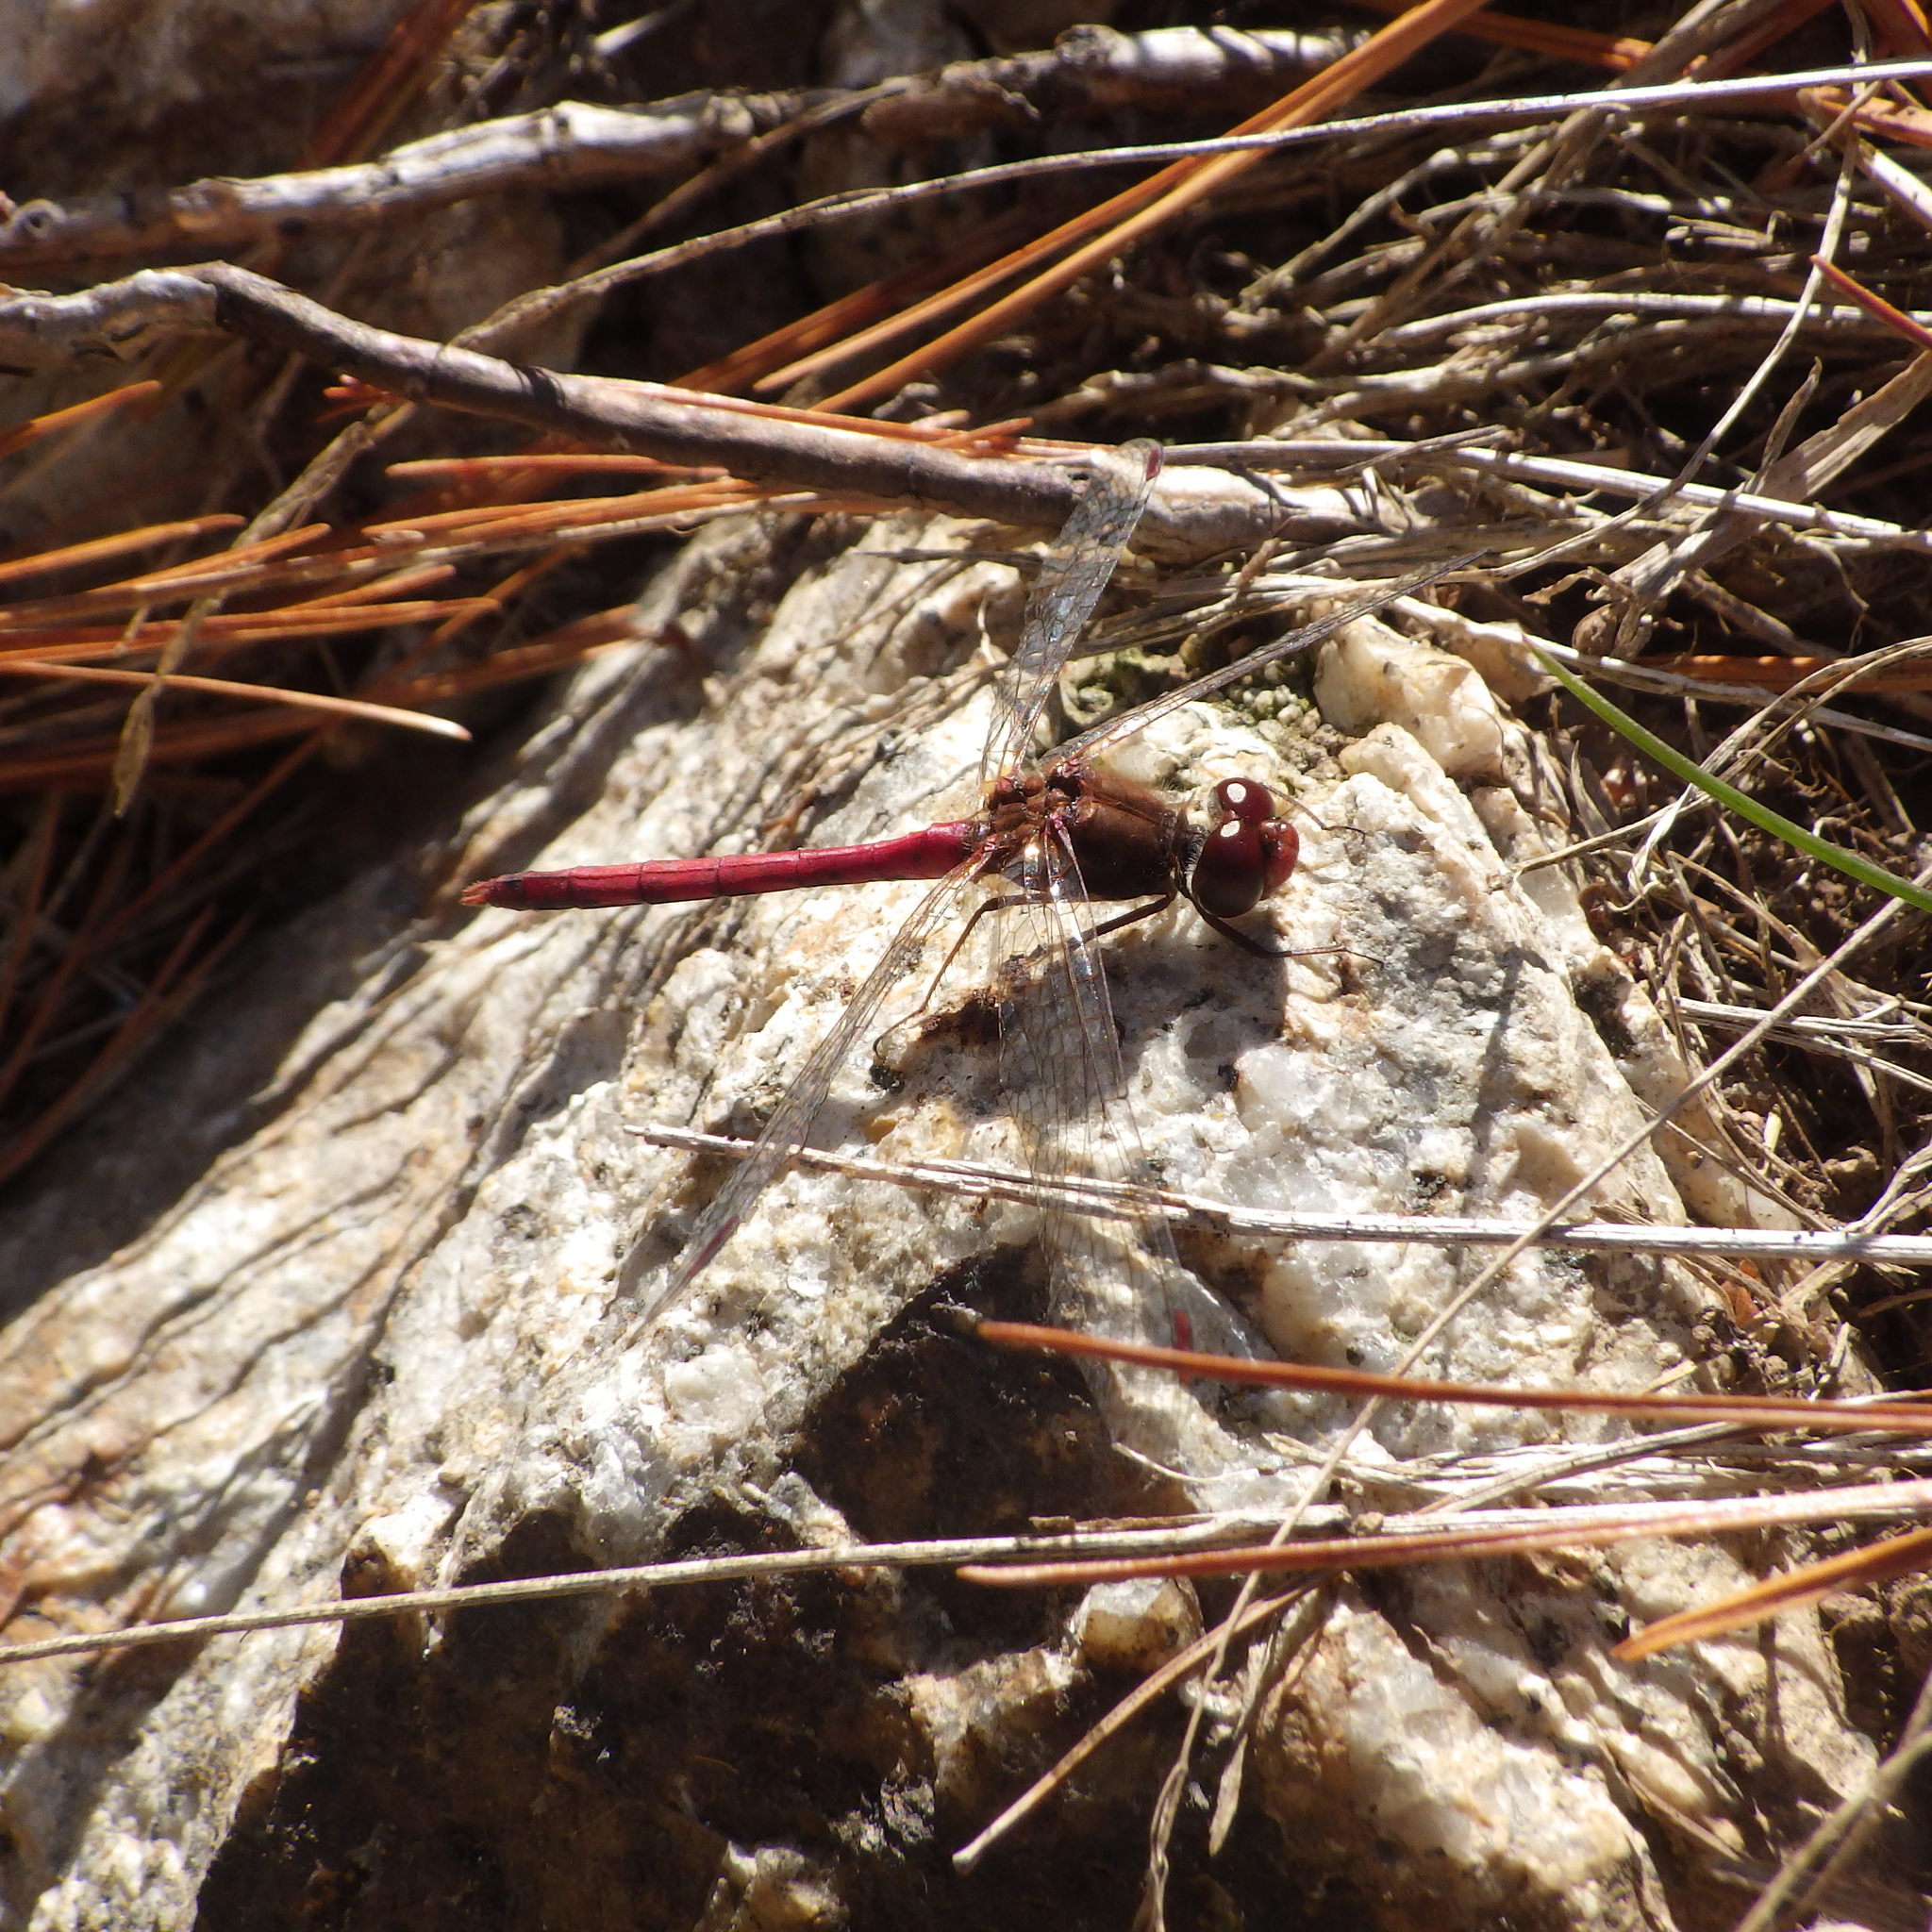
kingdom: Animalia
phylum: Arthropoda
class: Insecta
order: Odonata
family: Libellulidae
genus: Sympetrum
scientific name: Sympetrum vicinum
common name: Autumn meadowhawk
